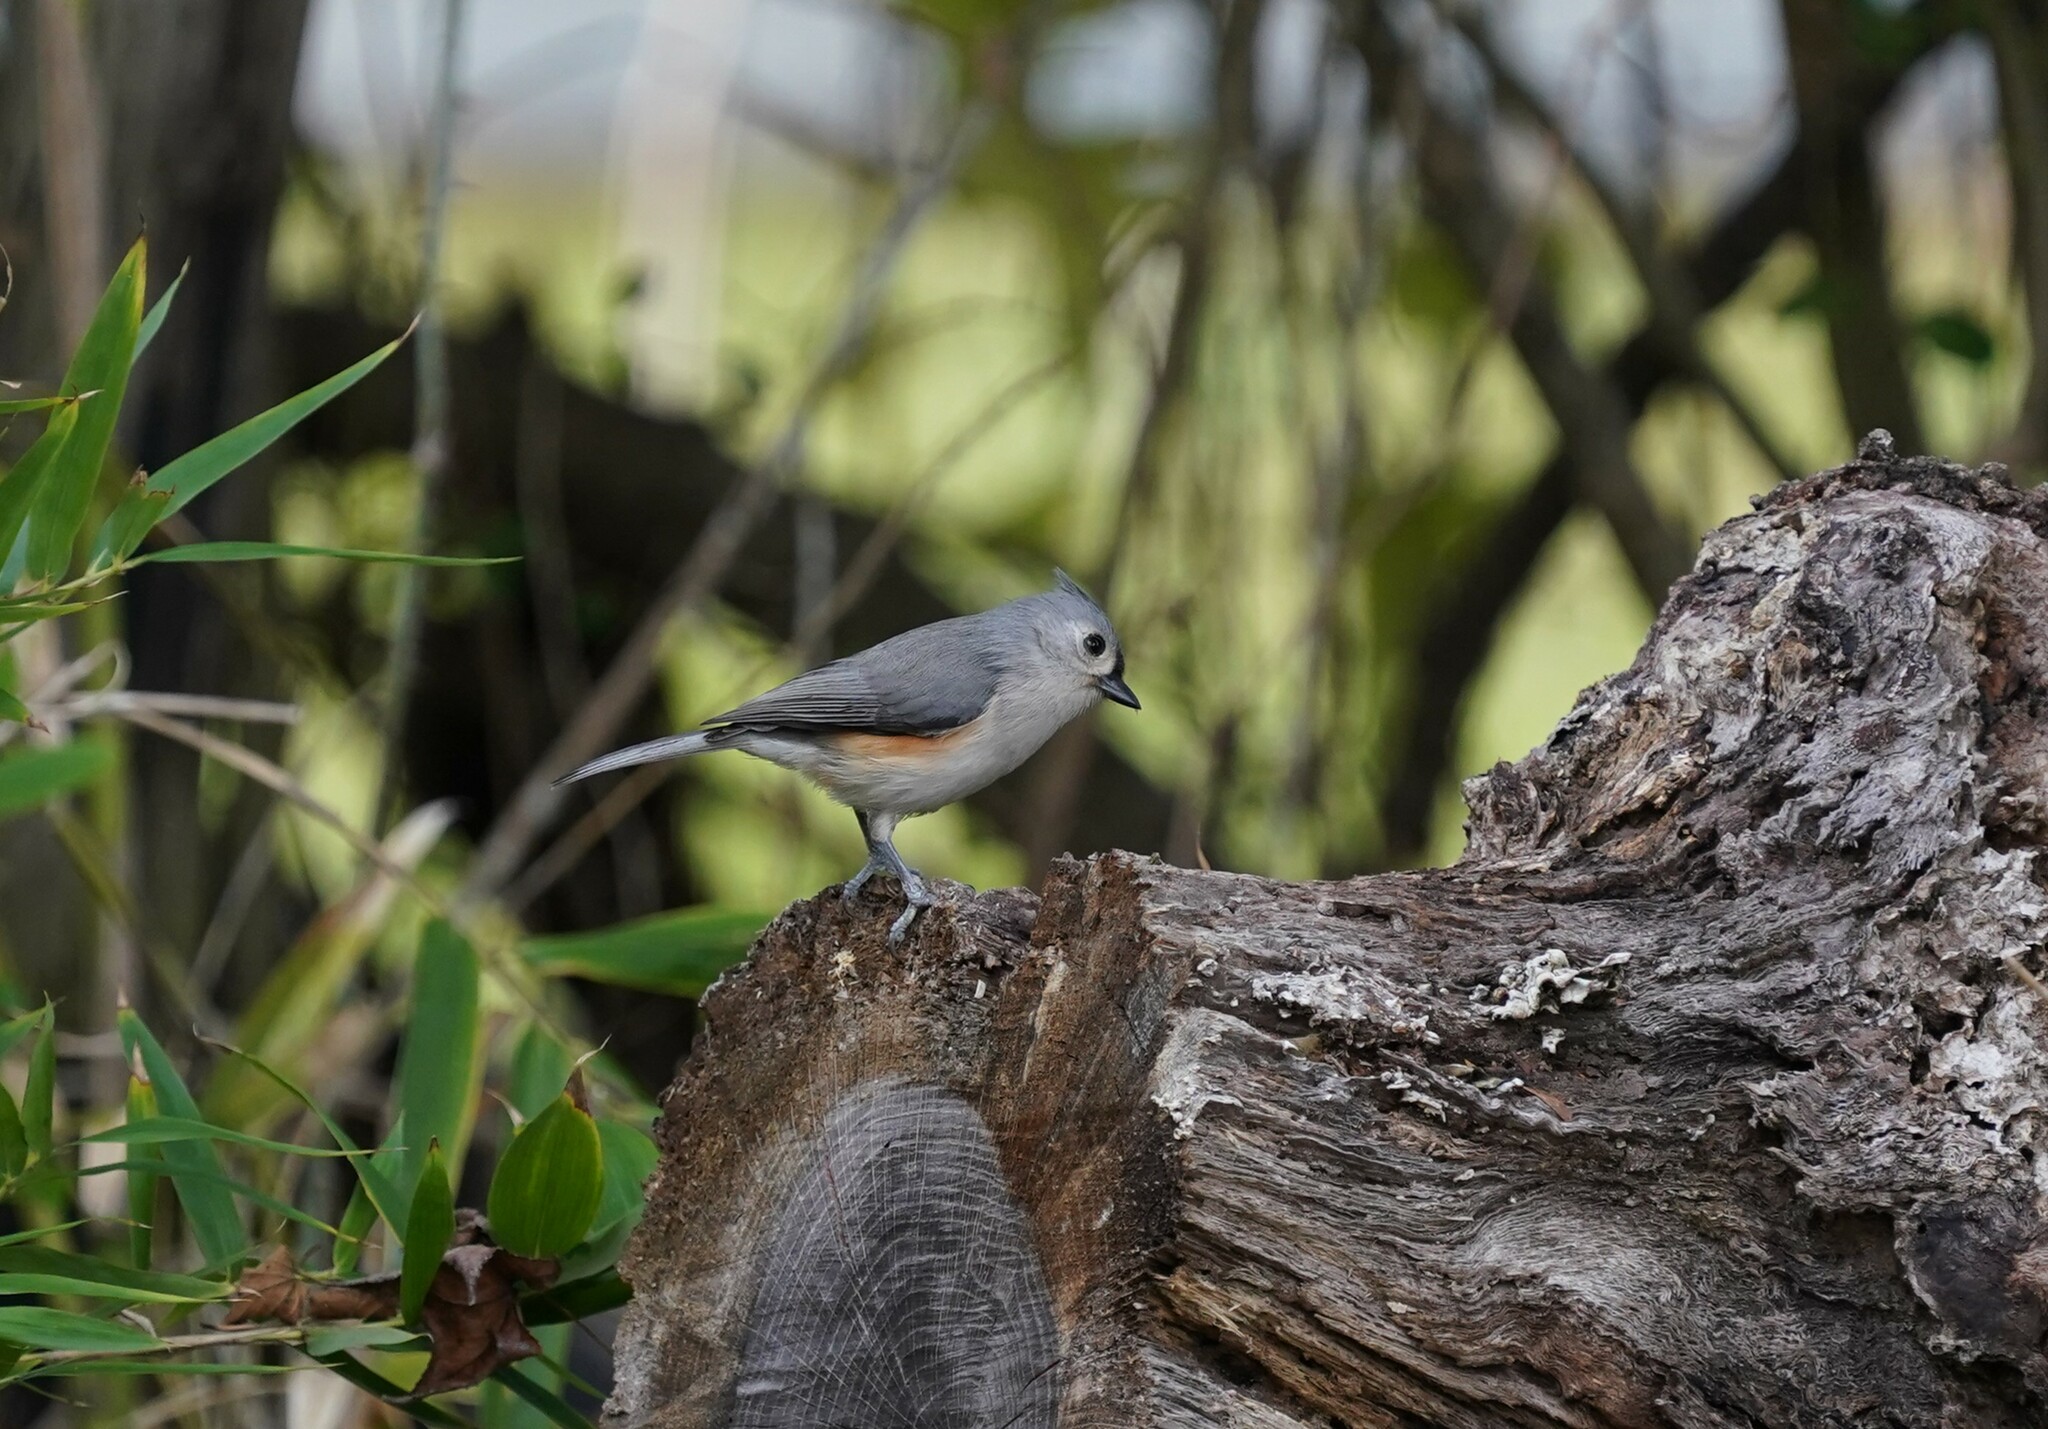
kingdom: Animalia
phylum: Chordata
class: Aves
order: Passeriformes
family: Paridae
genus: Baeolophus
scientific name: Baeolophus bicolor
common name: Tufted titmouse
